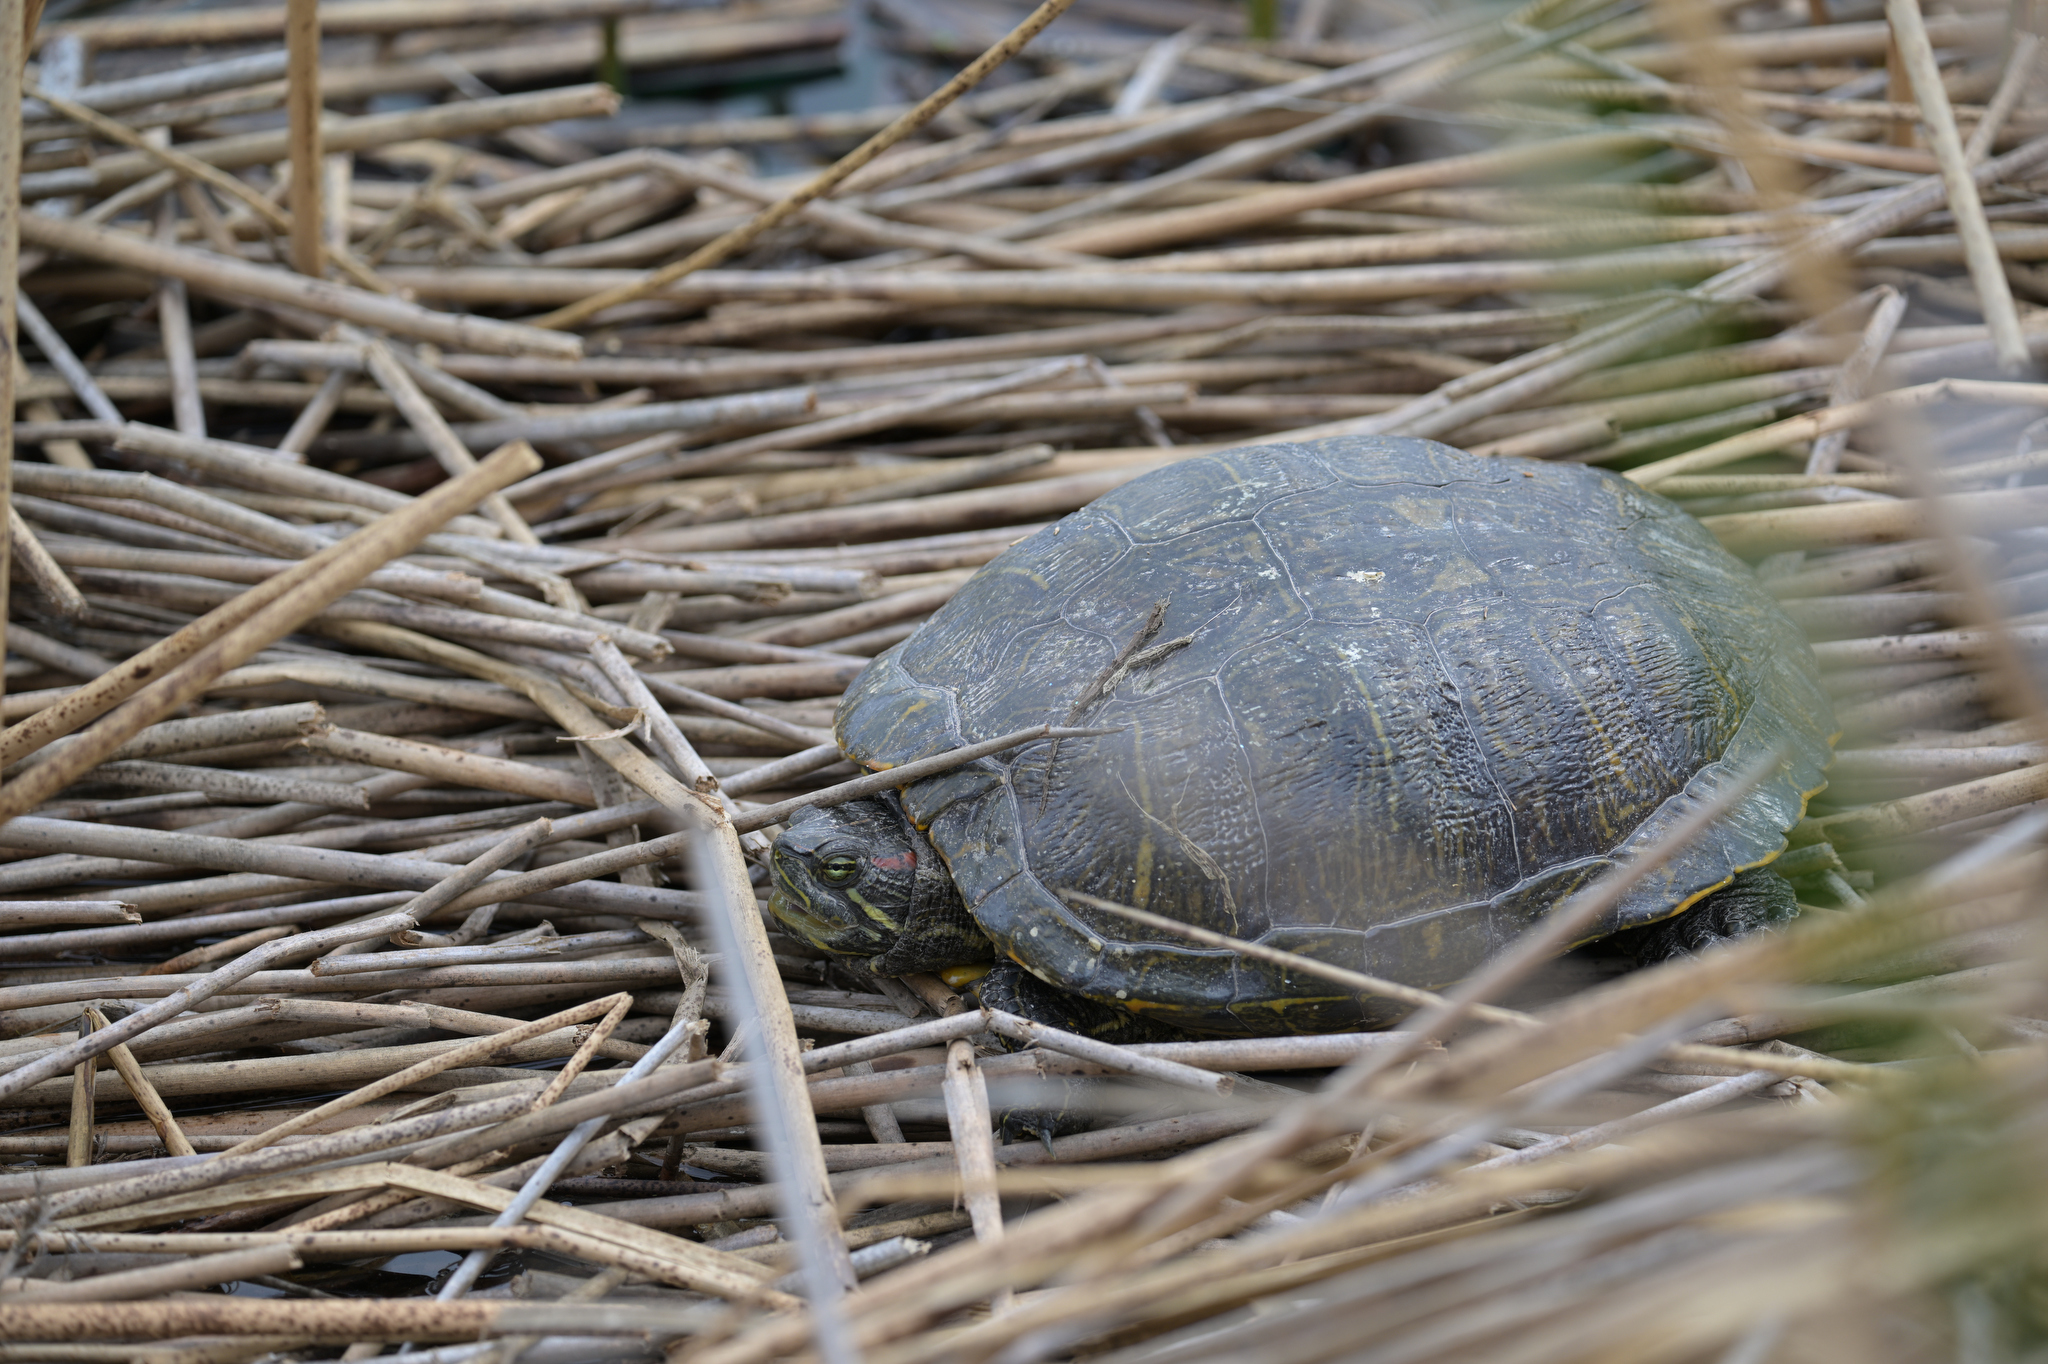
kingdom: Animalia
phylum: Chordata
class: Testudines
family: Emydidae
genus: Trachemys
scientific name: Trachemys scripta
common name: Slider
